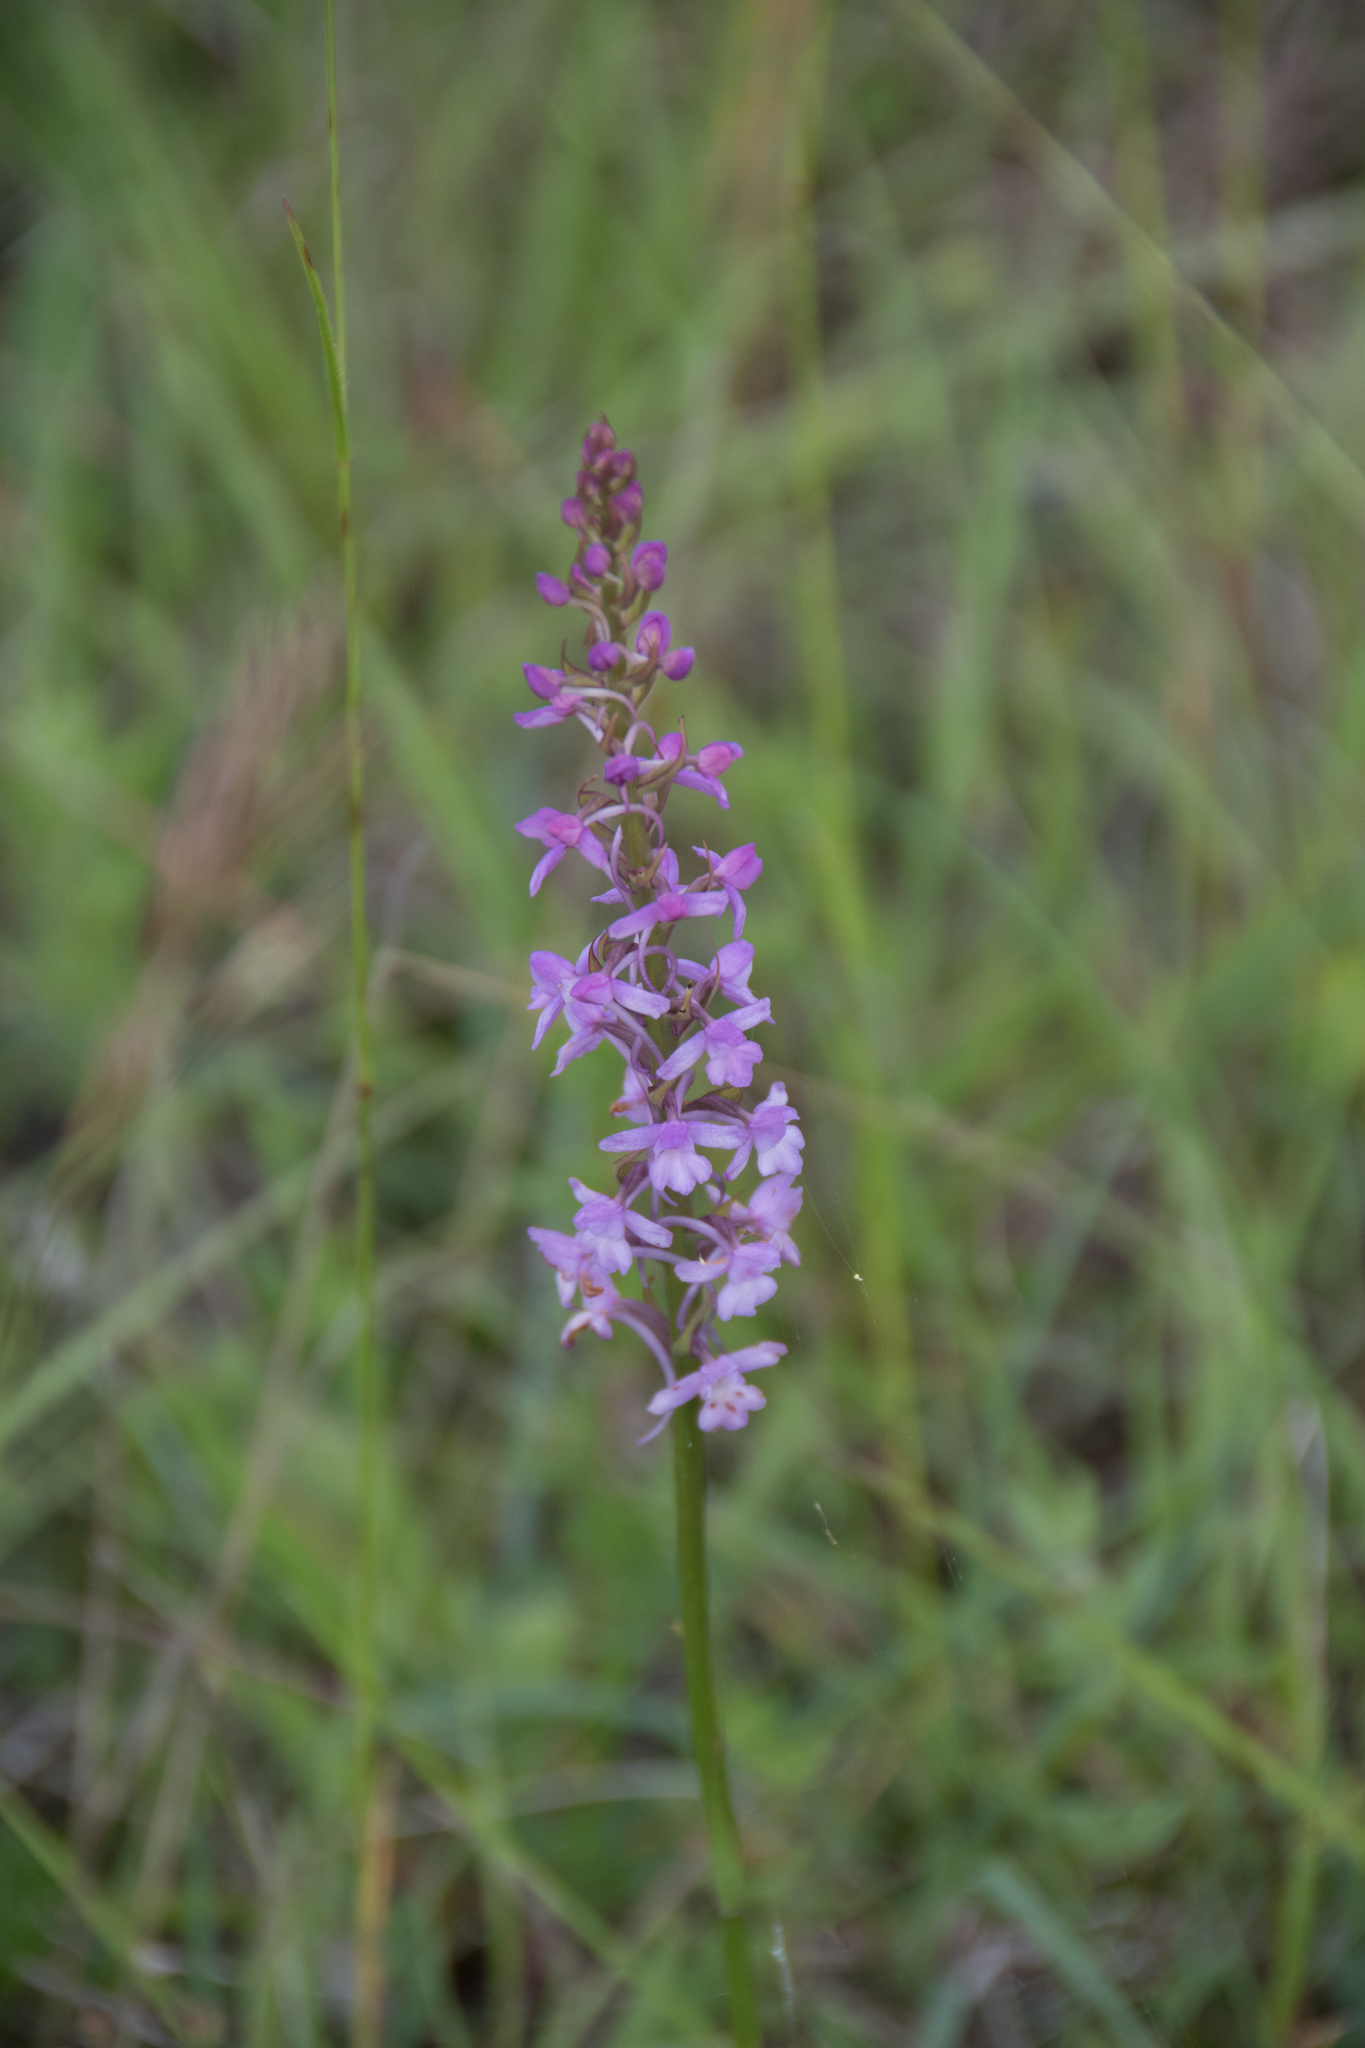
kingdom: Plantae
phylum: Tracheophyta
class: Liliopsida
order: Asparagales
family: Orchidaceae
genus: Gymnadenia
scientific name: Gymnadenia conopsea
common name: Fragrant orchid
